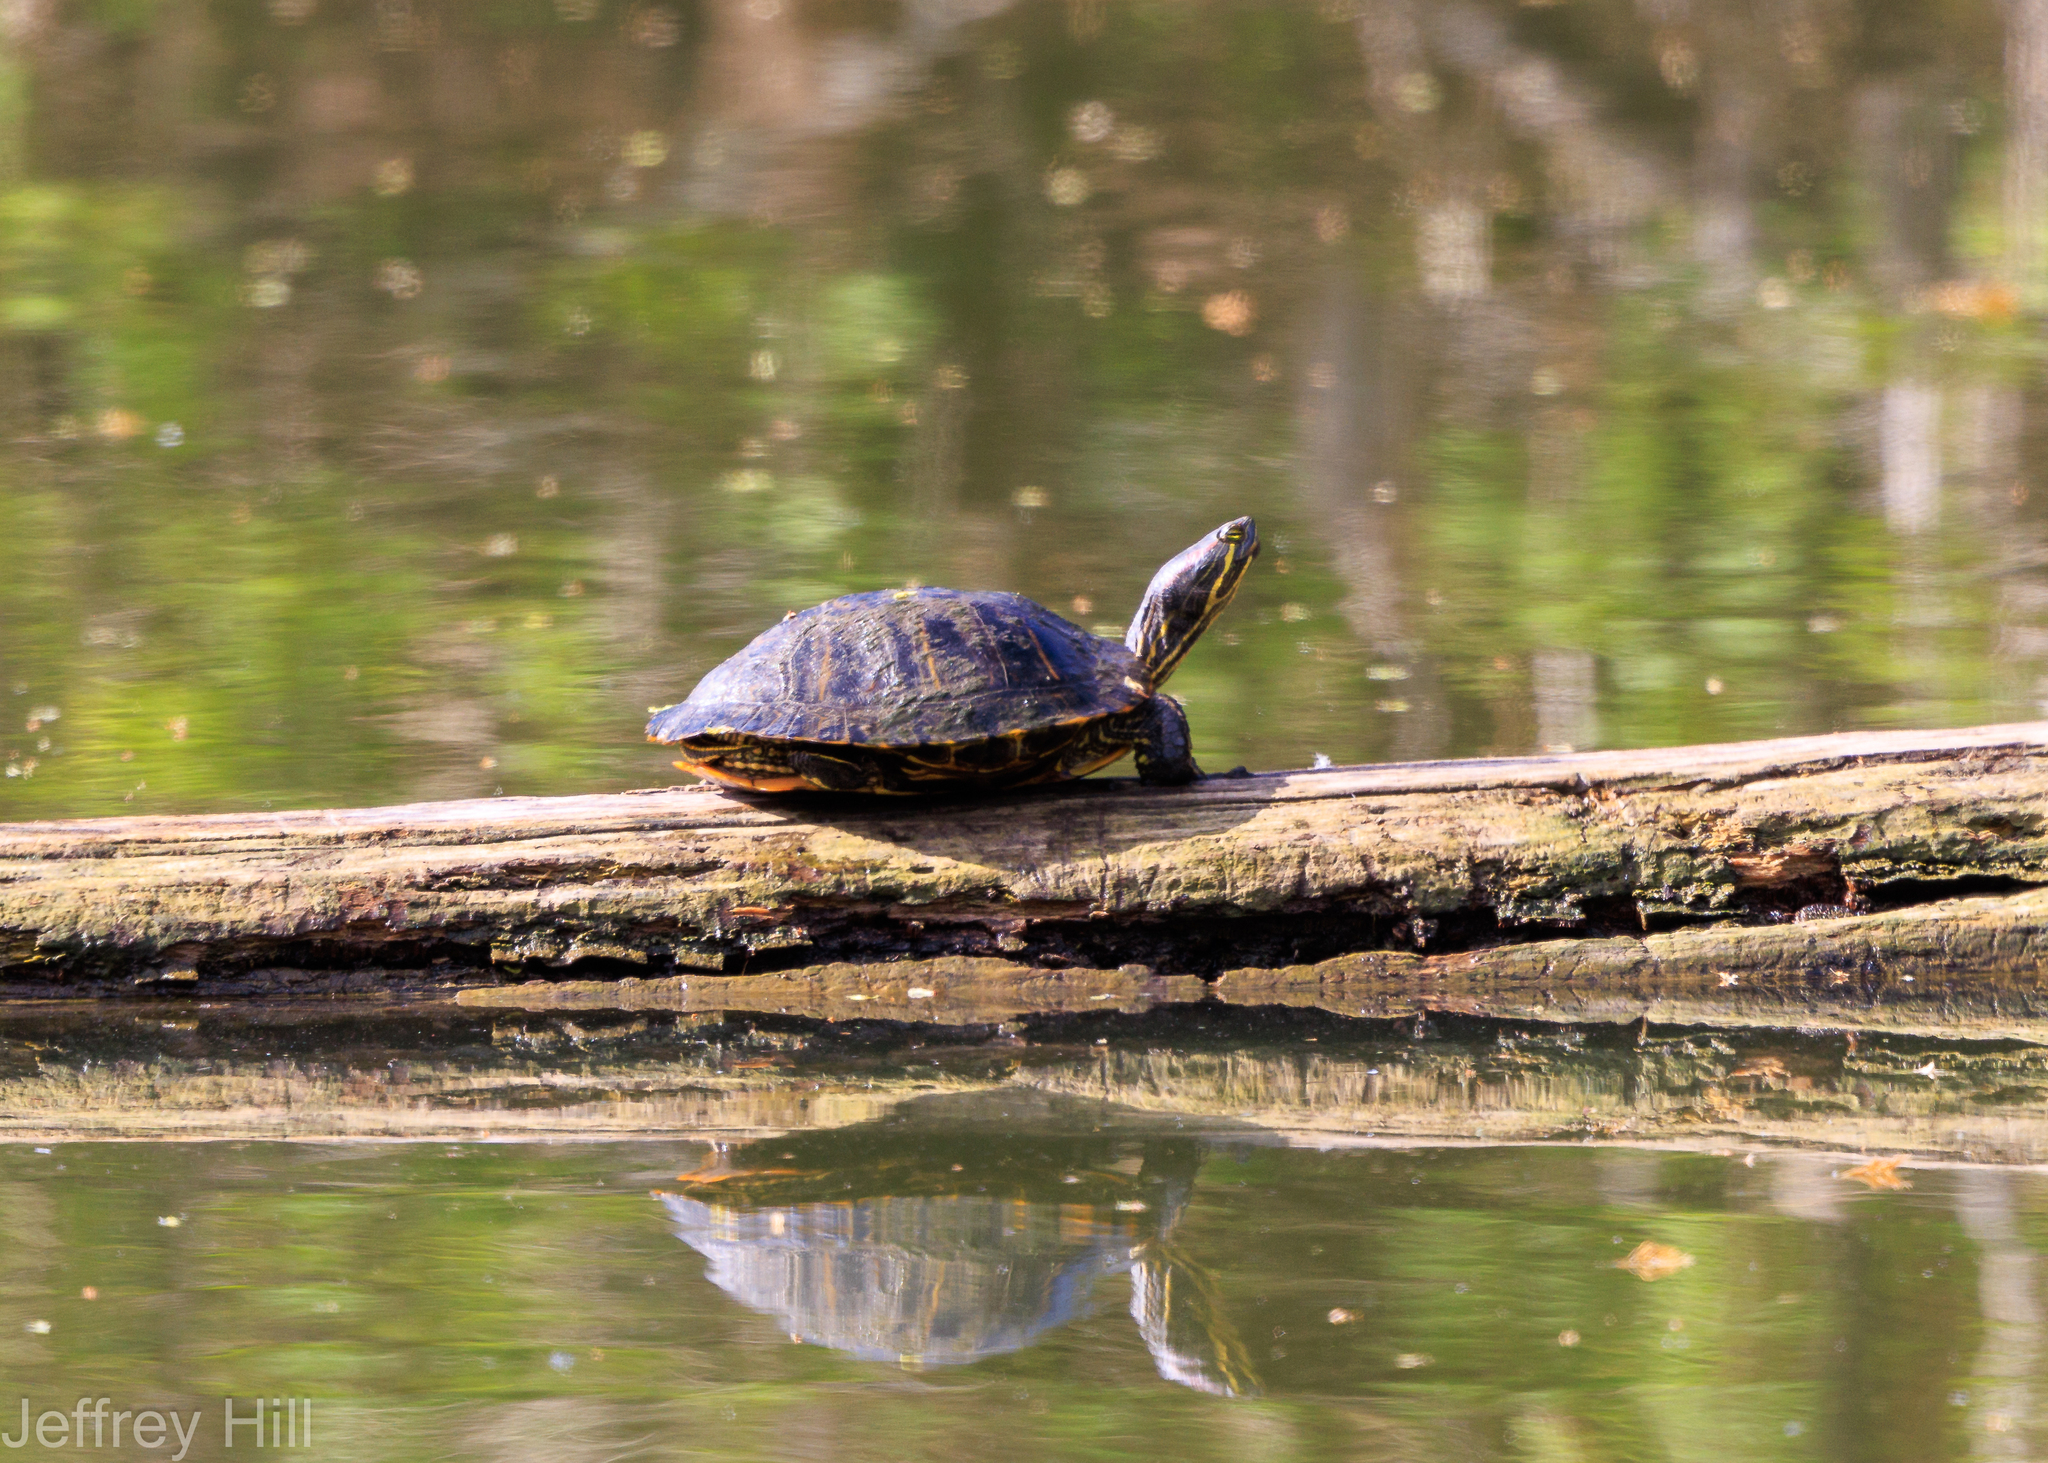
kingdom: Animalia
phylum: Chordata
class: Testudines
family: Emydidae
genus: Trachemys
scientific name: Trachemys scripta
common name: Slider
